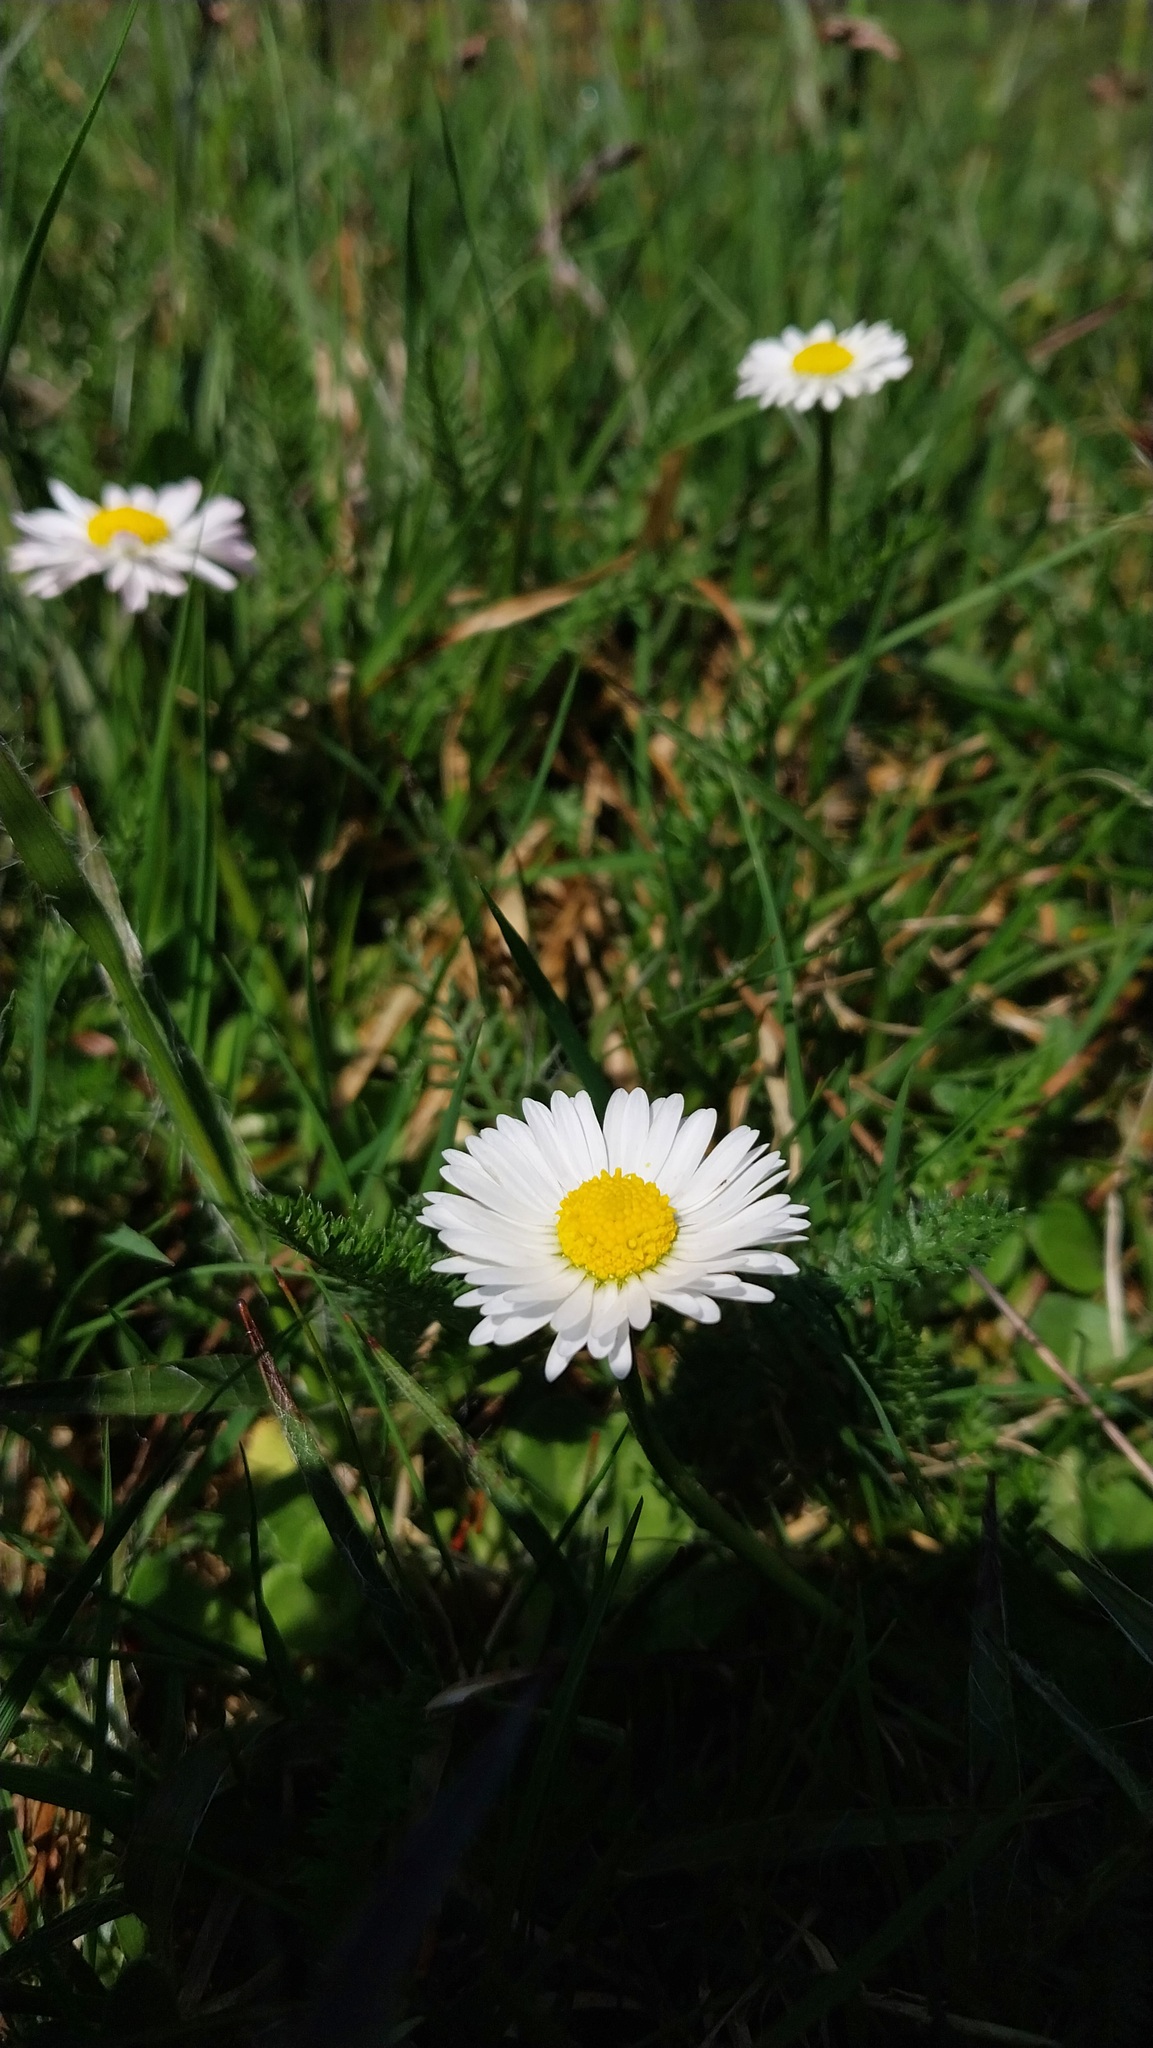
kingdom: Plantae
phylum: Tracheophyta
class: Magnoliopsida
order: Asterales
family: Asteraceae
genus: Bellis
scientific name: Bellis perennis
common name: Lawndaisy
